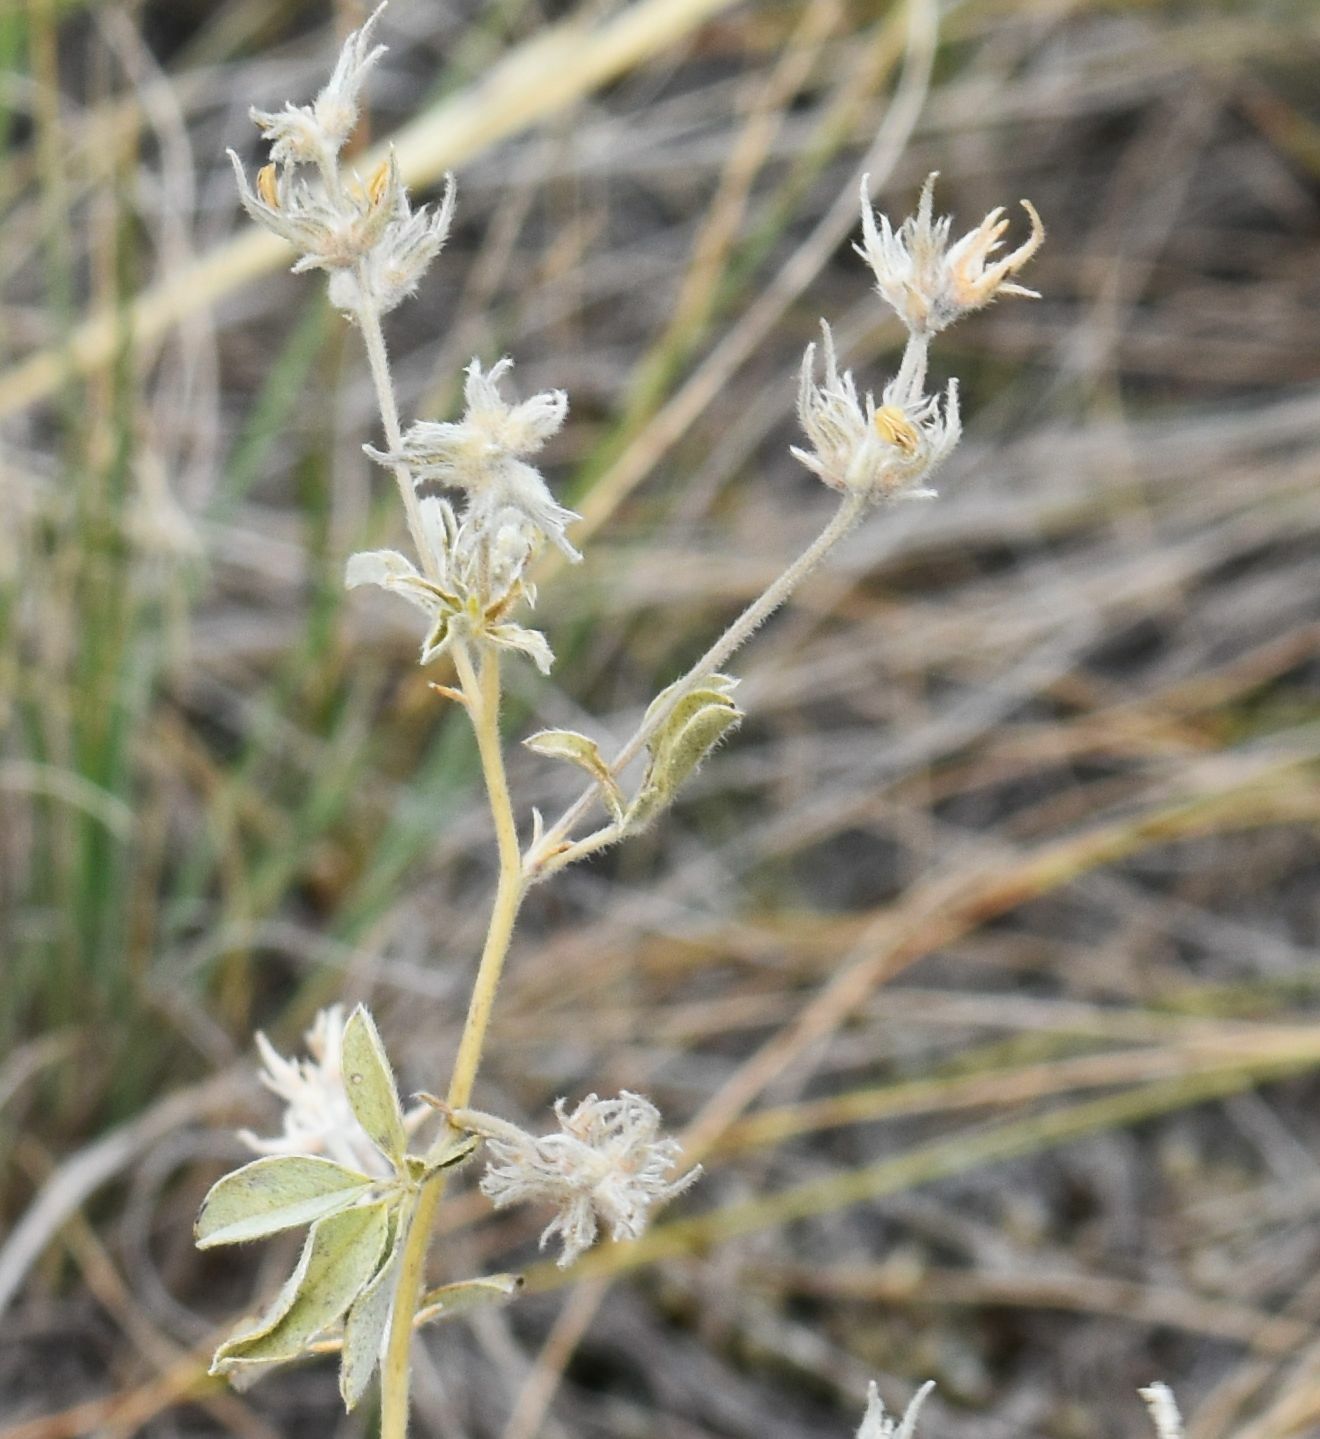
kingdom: Plantae
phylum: Tracheophyta
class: Magnoliopsida
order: Fabales
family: Fabaceae
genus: Pediomelum
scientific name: Pediomelum argophyllum
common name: Silver-leaved indian breadroot
